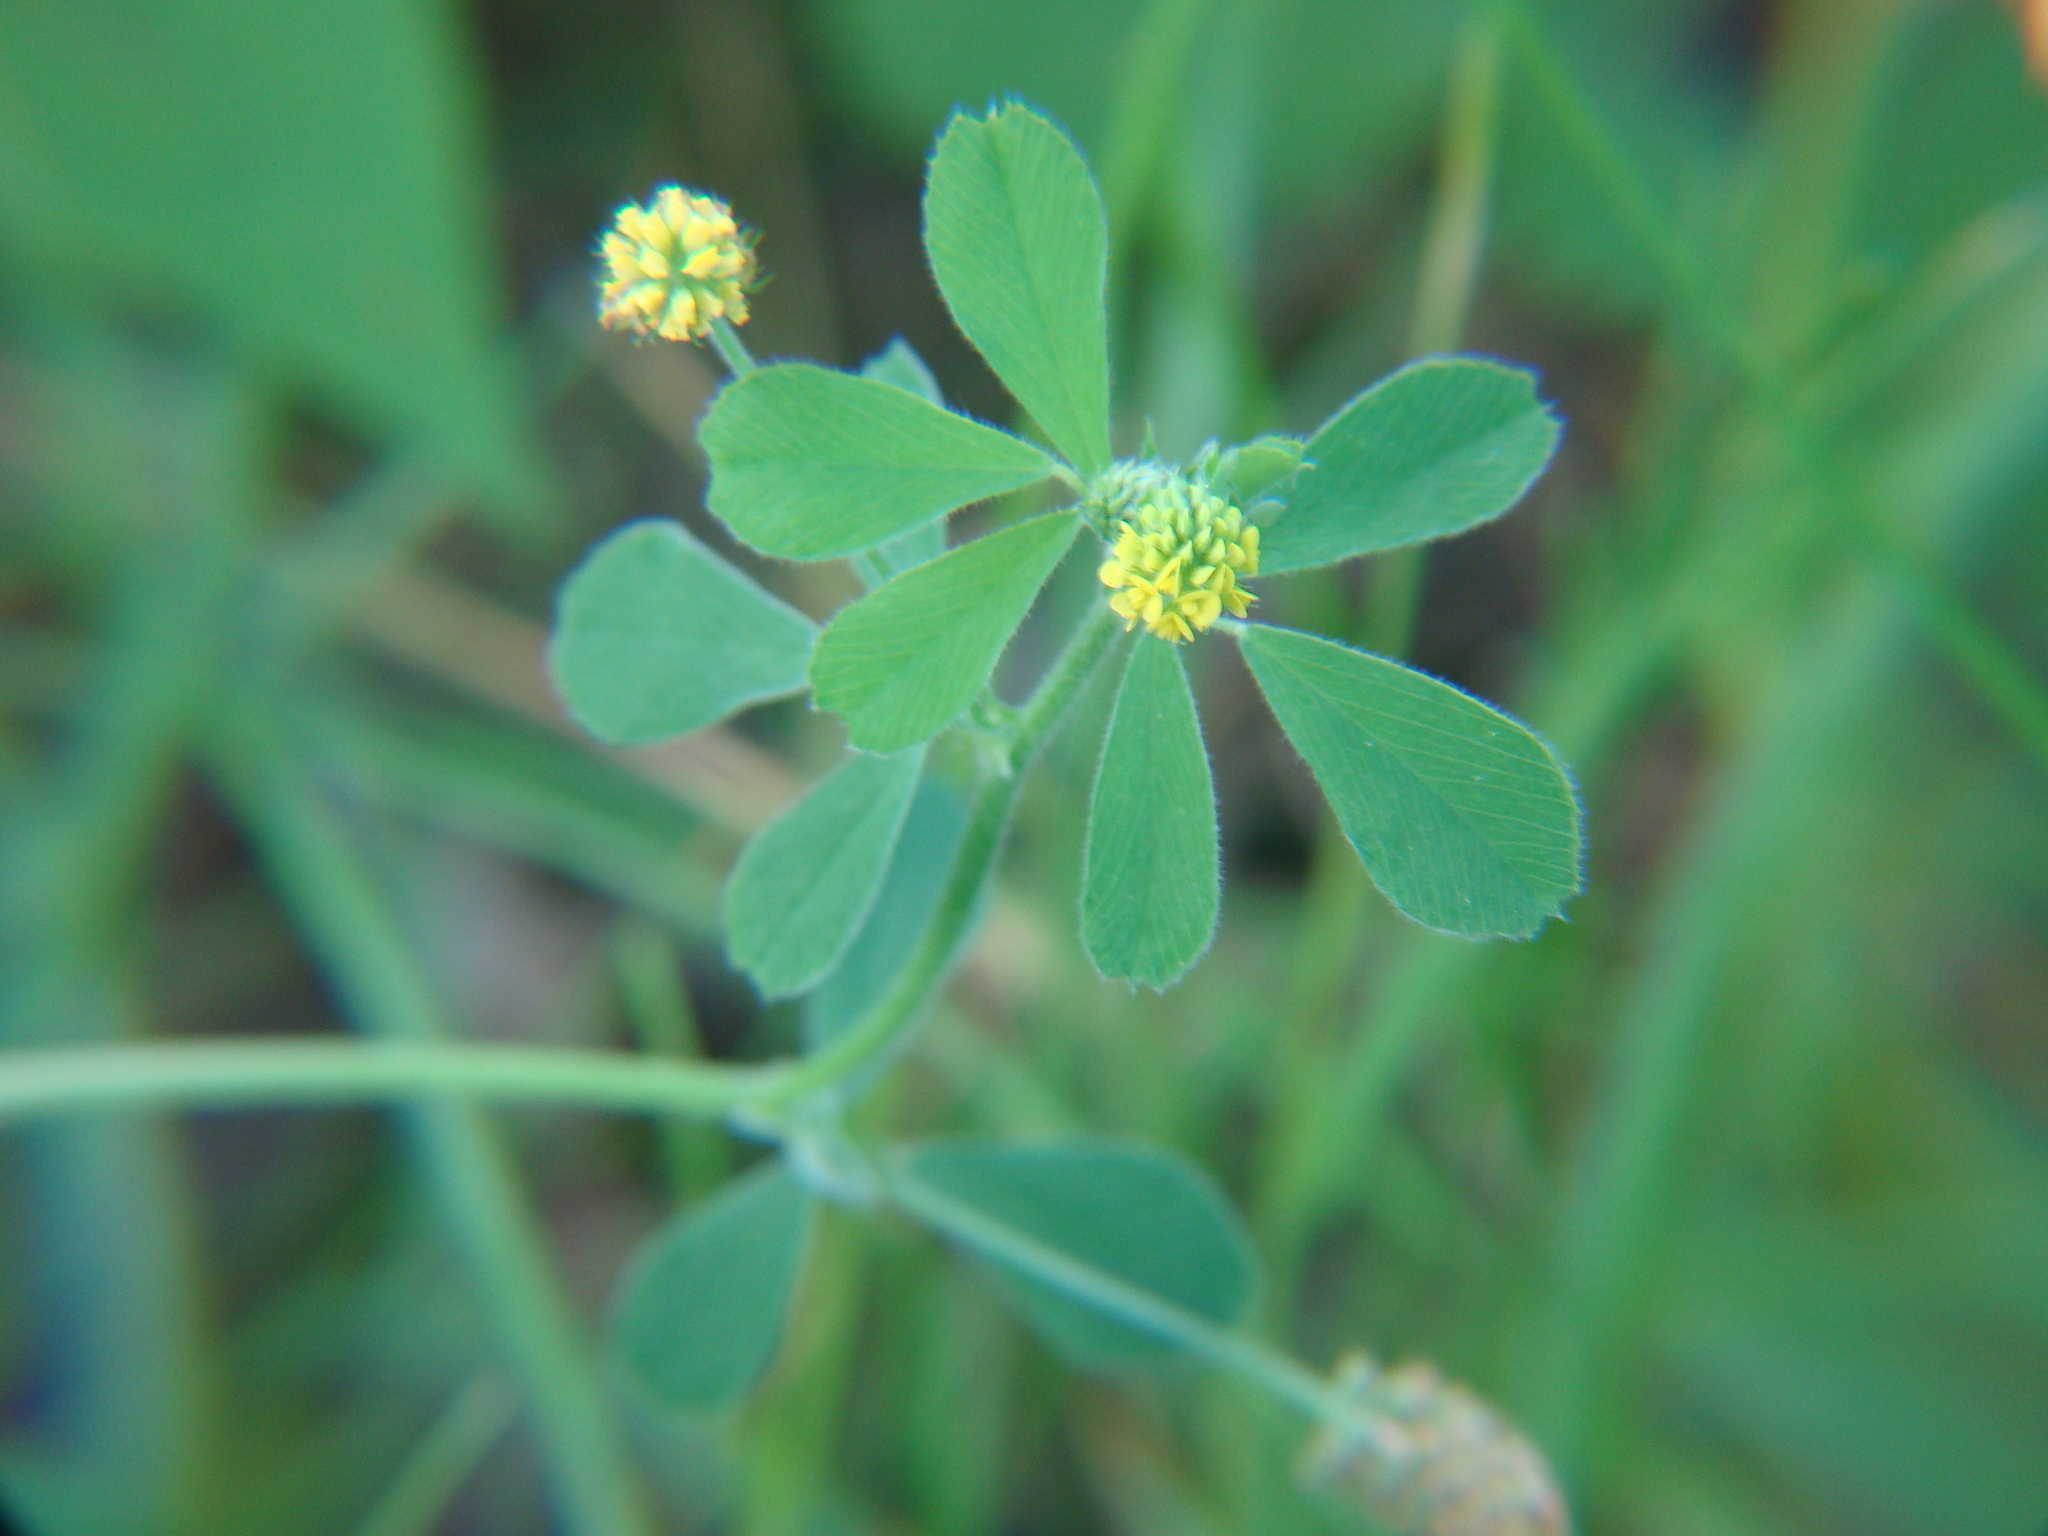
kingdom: Plantae
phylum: Tracheophyta
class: Magnoliopsida
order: Fabales
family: Fabaceae
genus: Medicago
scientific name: Medicago lupulina
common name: Black medick
